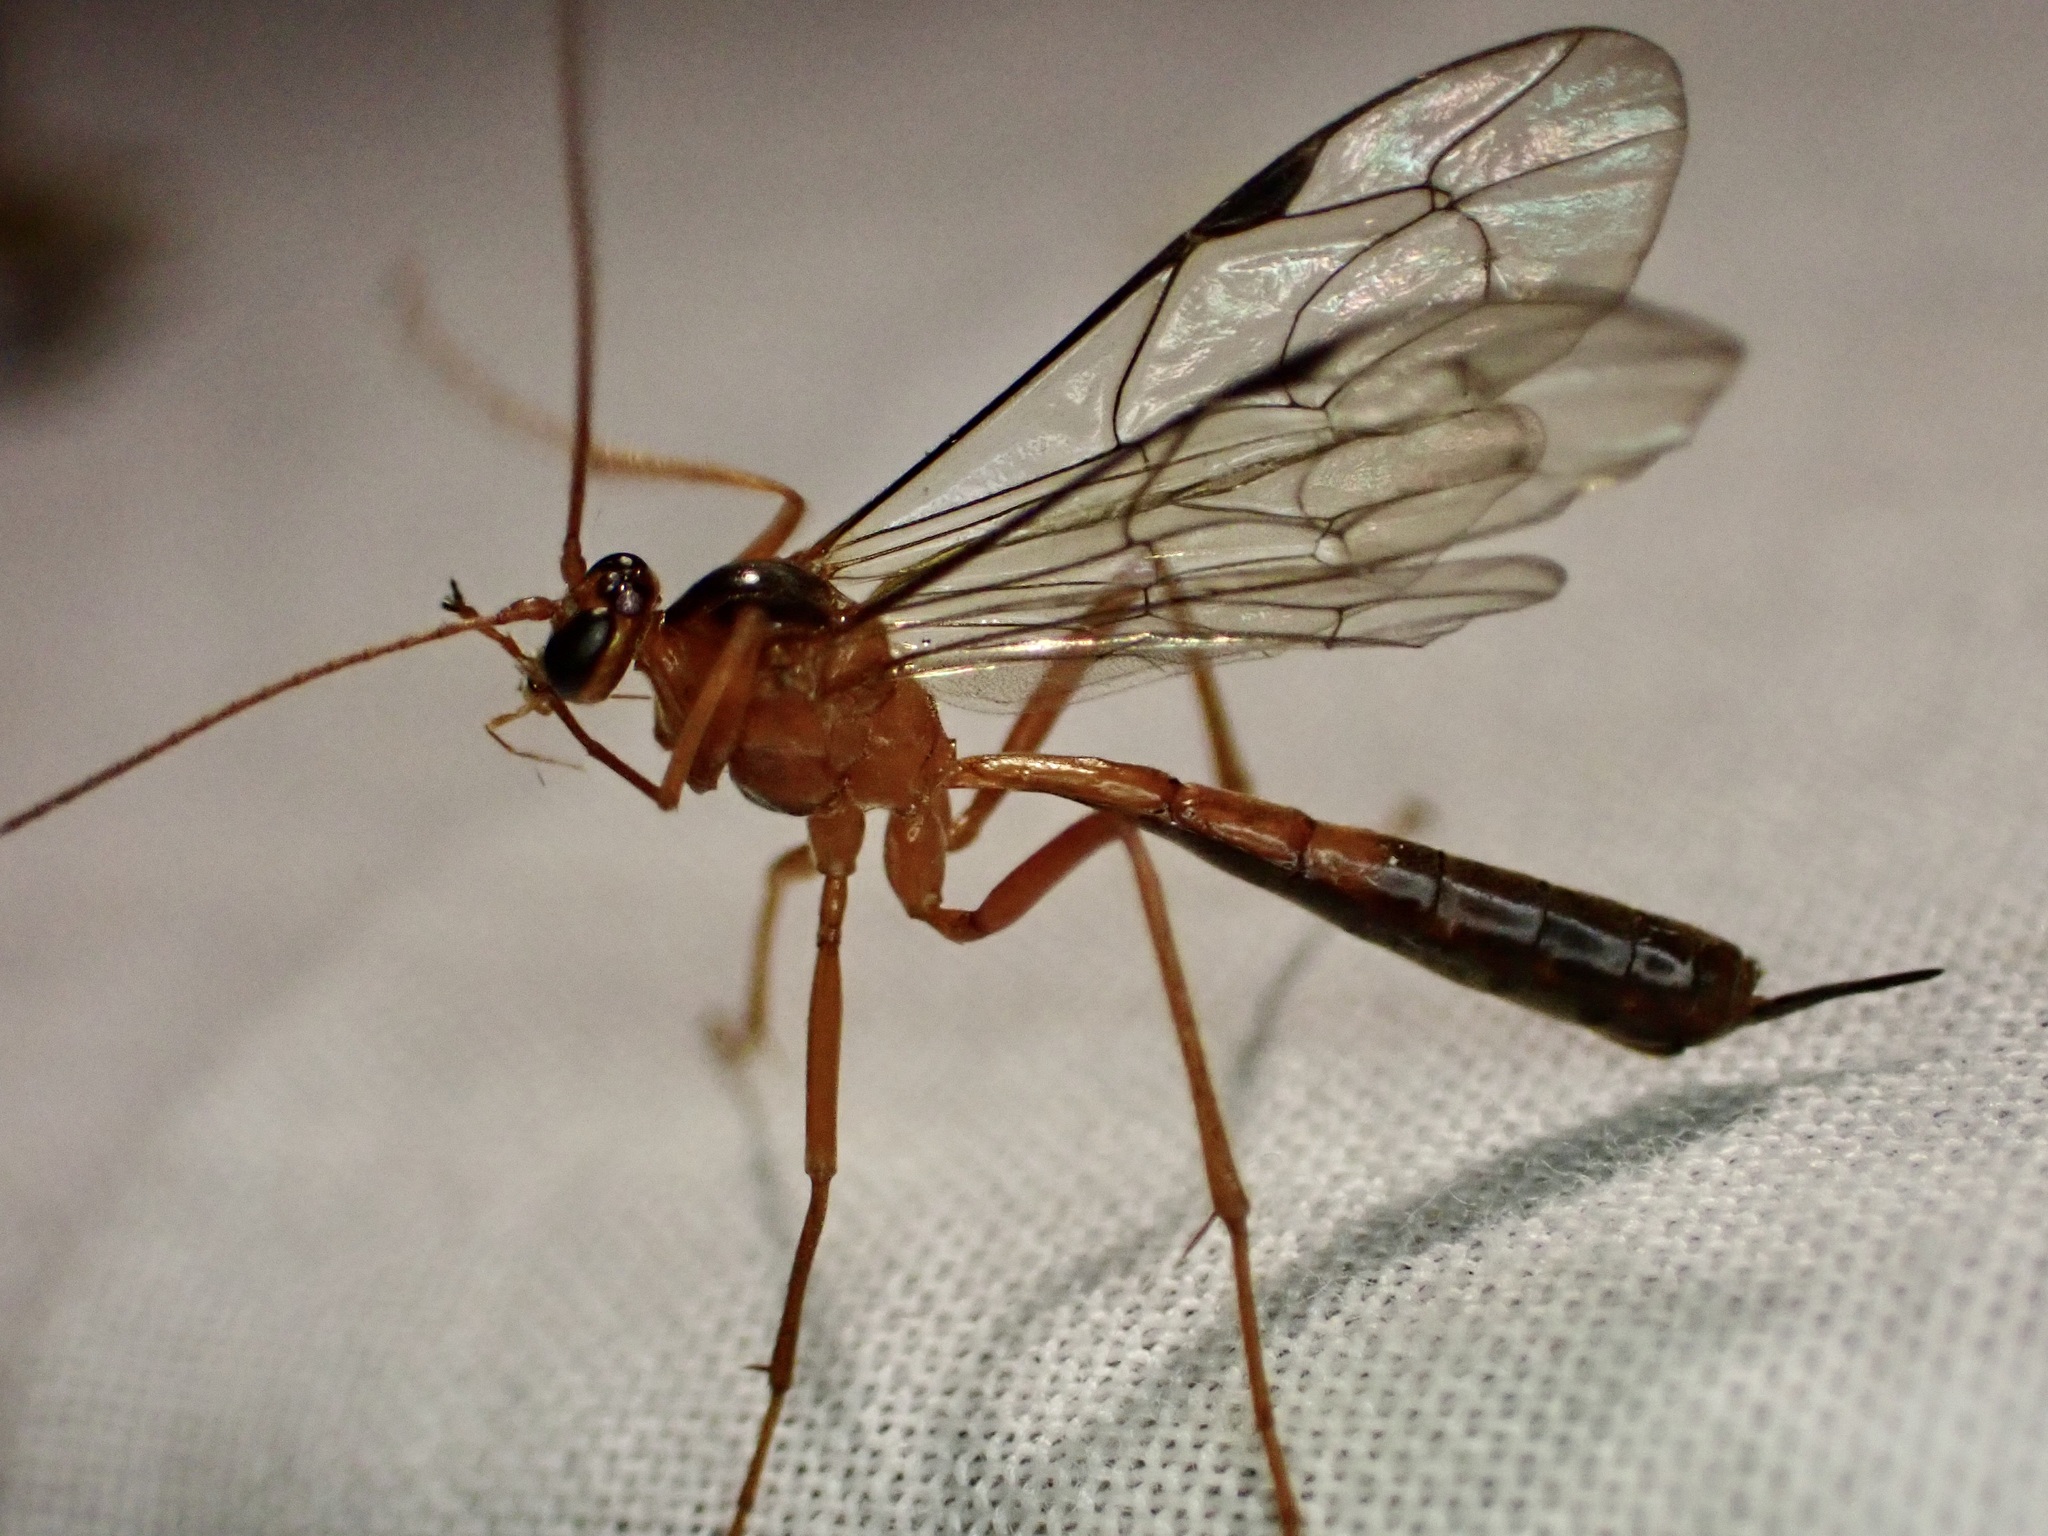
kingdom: Animalia
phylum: Arthropoda
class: Insecta
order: Hymenoptera
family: Ichneumonidae
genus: Netelia
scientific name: Netelia ephippiata
